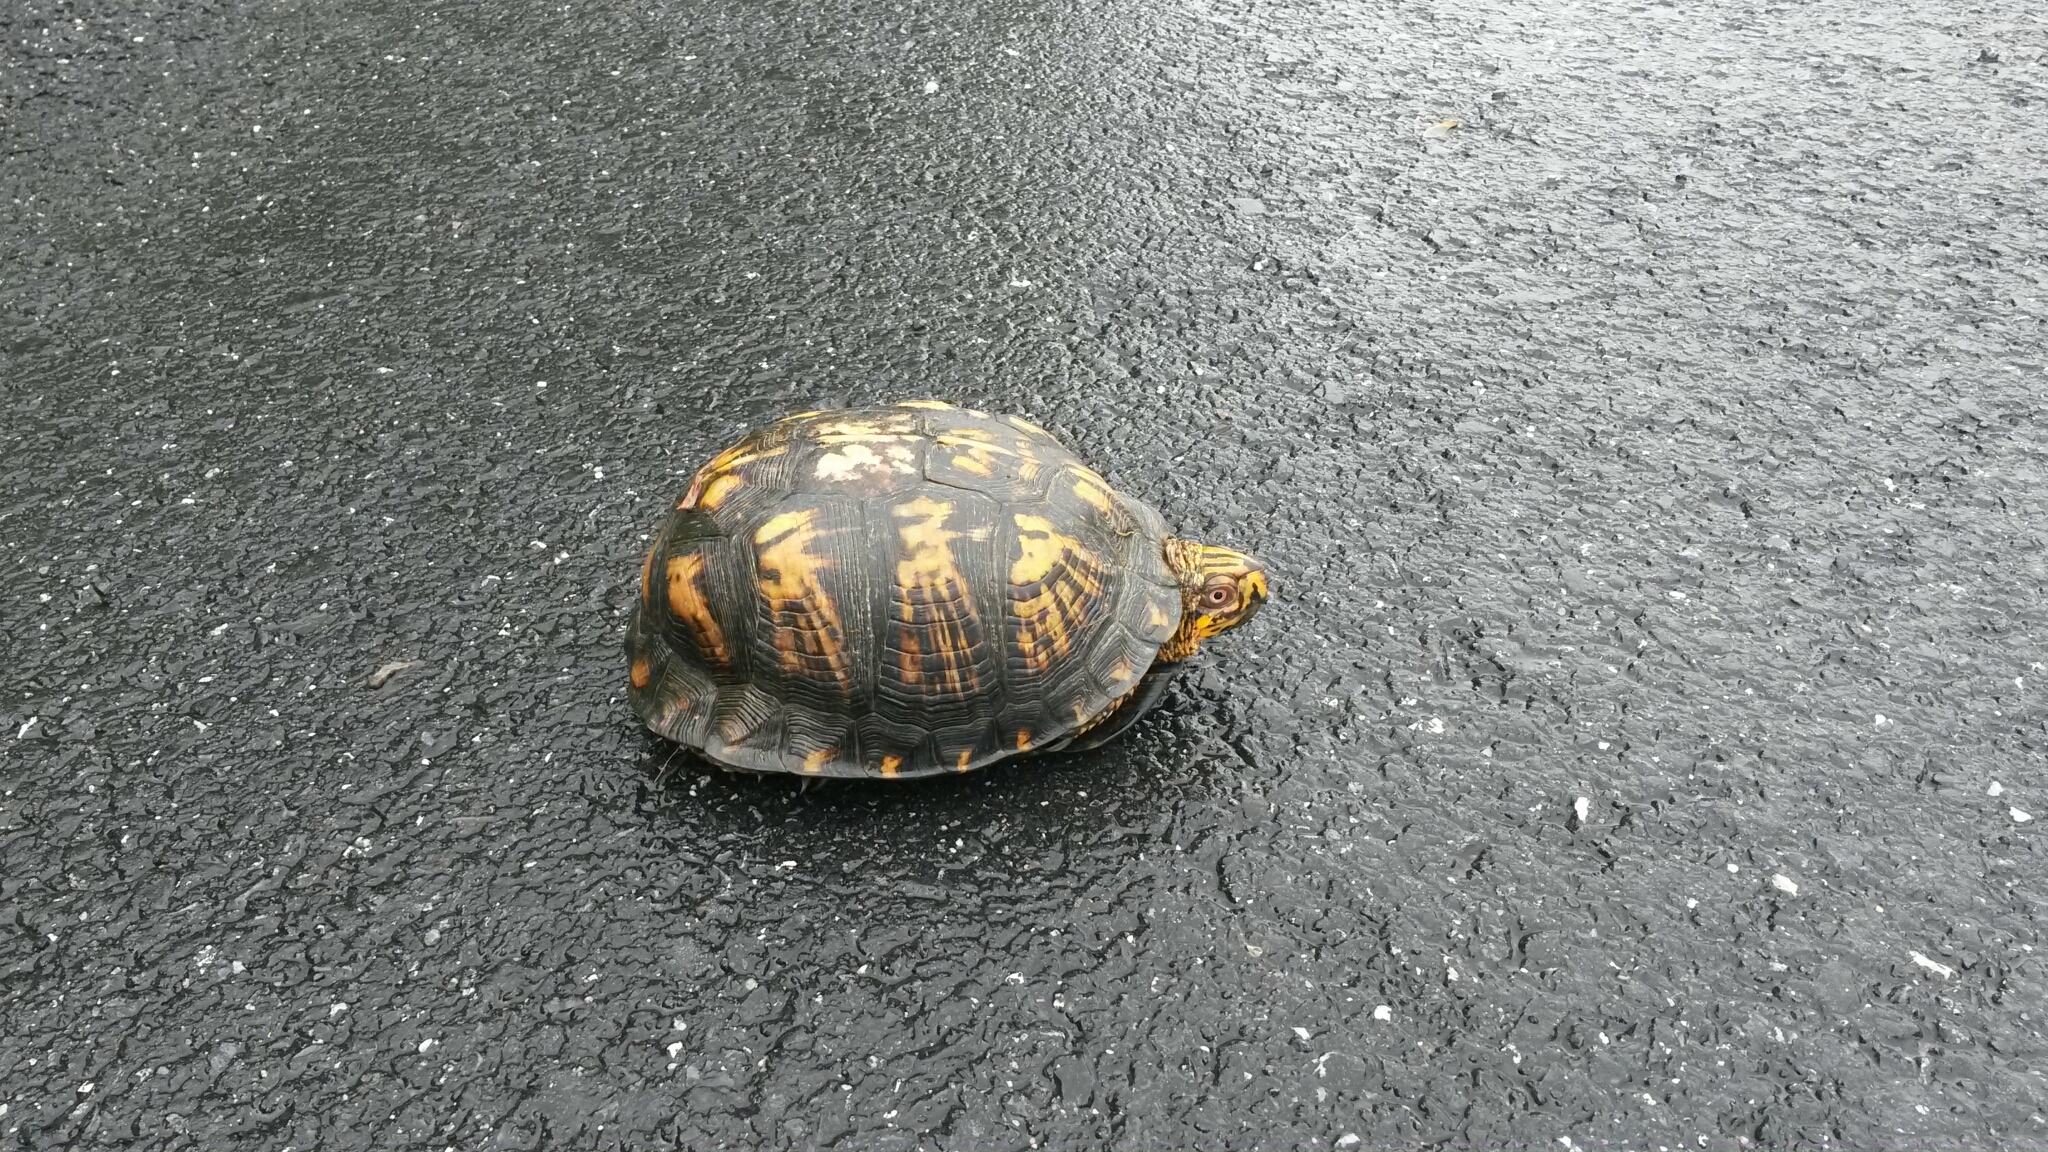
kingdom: Animalia
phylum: Chordata
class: Testudines
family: Emydidae
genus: Terrapene
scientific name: Terrapene carolina
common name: Common box turtle
